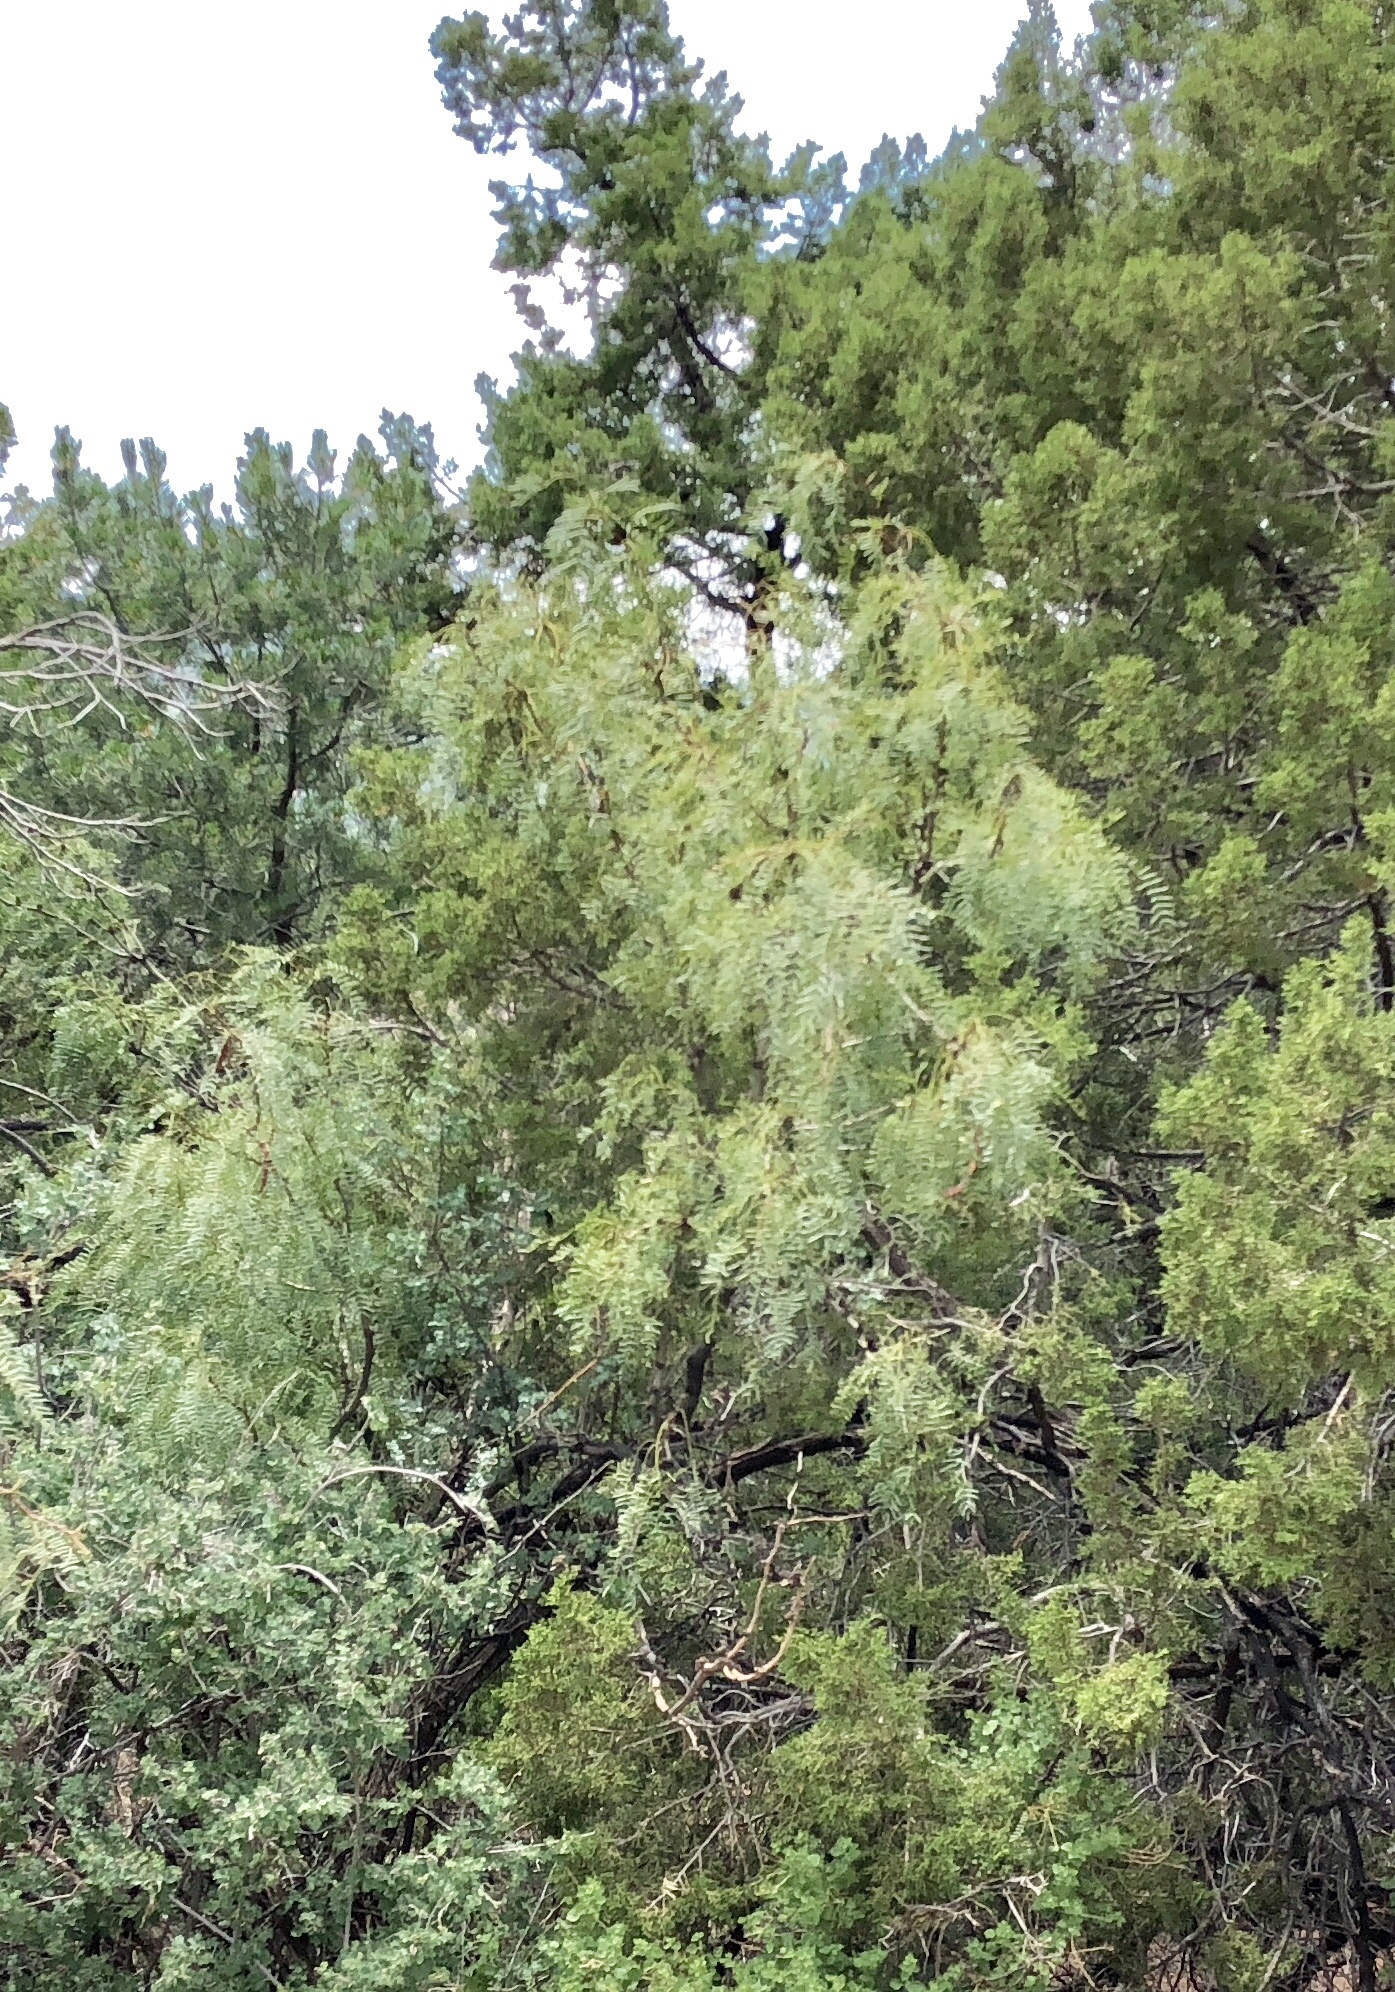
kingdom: Plantae
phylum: Tracheophyta
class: Magnoliopsida
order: Fabales
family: Fabaceae
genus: Prosopis
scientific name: Prosopis glandulosa
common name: Honey mesquite
